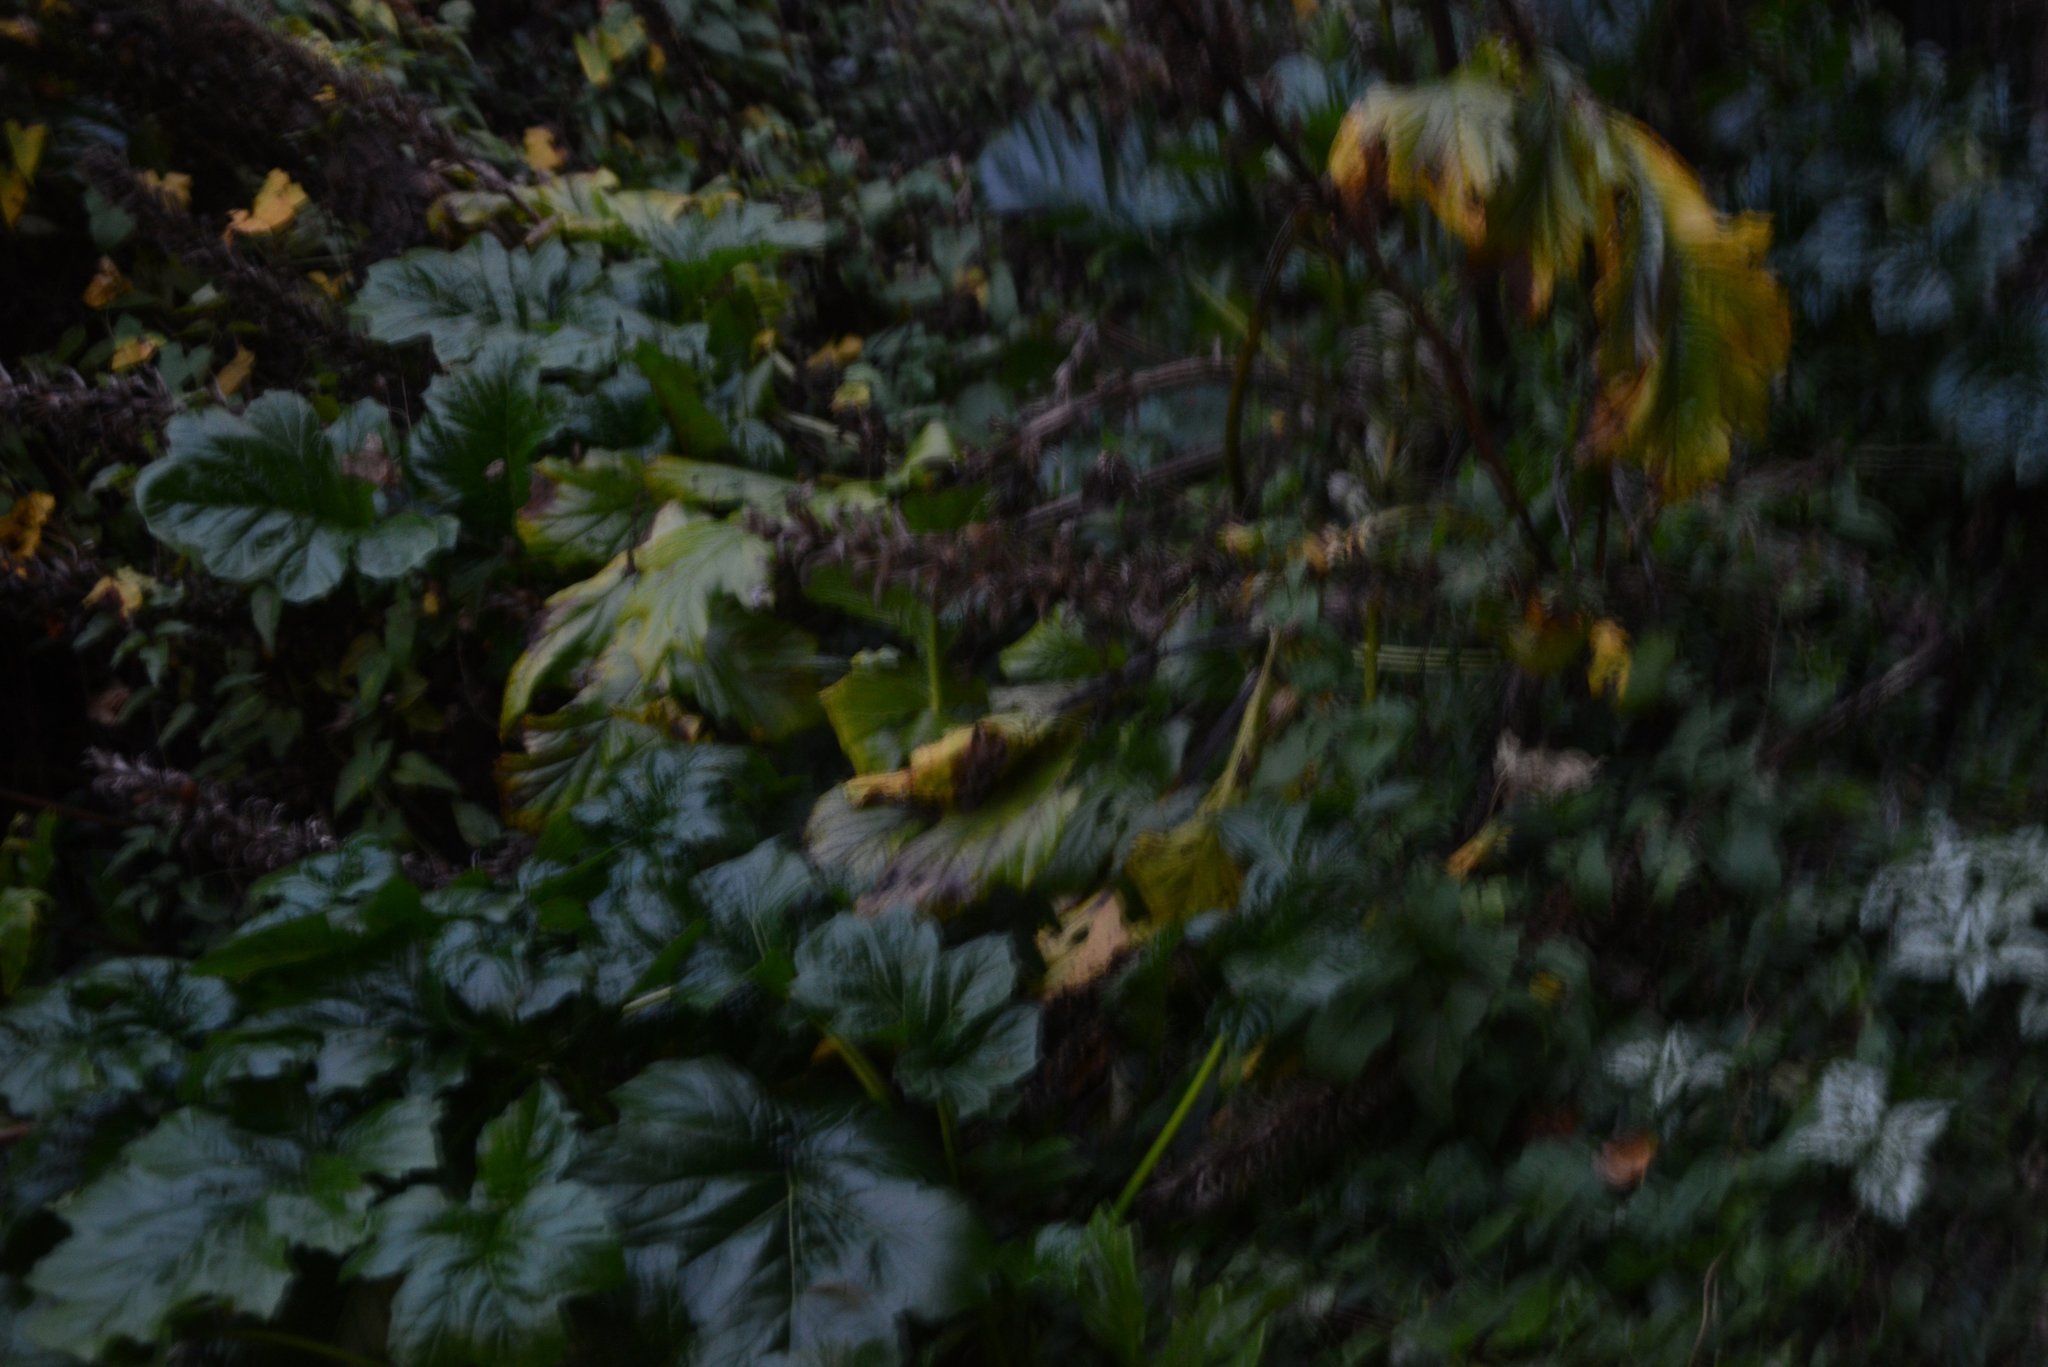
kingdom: Plantae
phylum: Tracheophyta
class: Magnoliopsida
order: Lamiales
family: Acanthaceae
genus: Acanthus
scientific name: Acanthus mollis
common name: Bear's-breech
